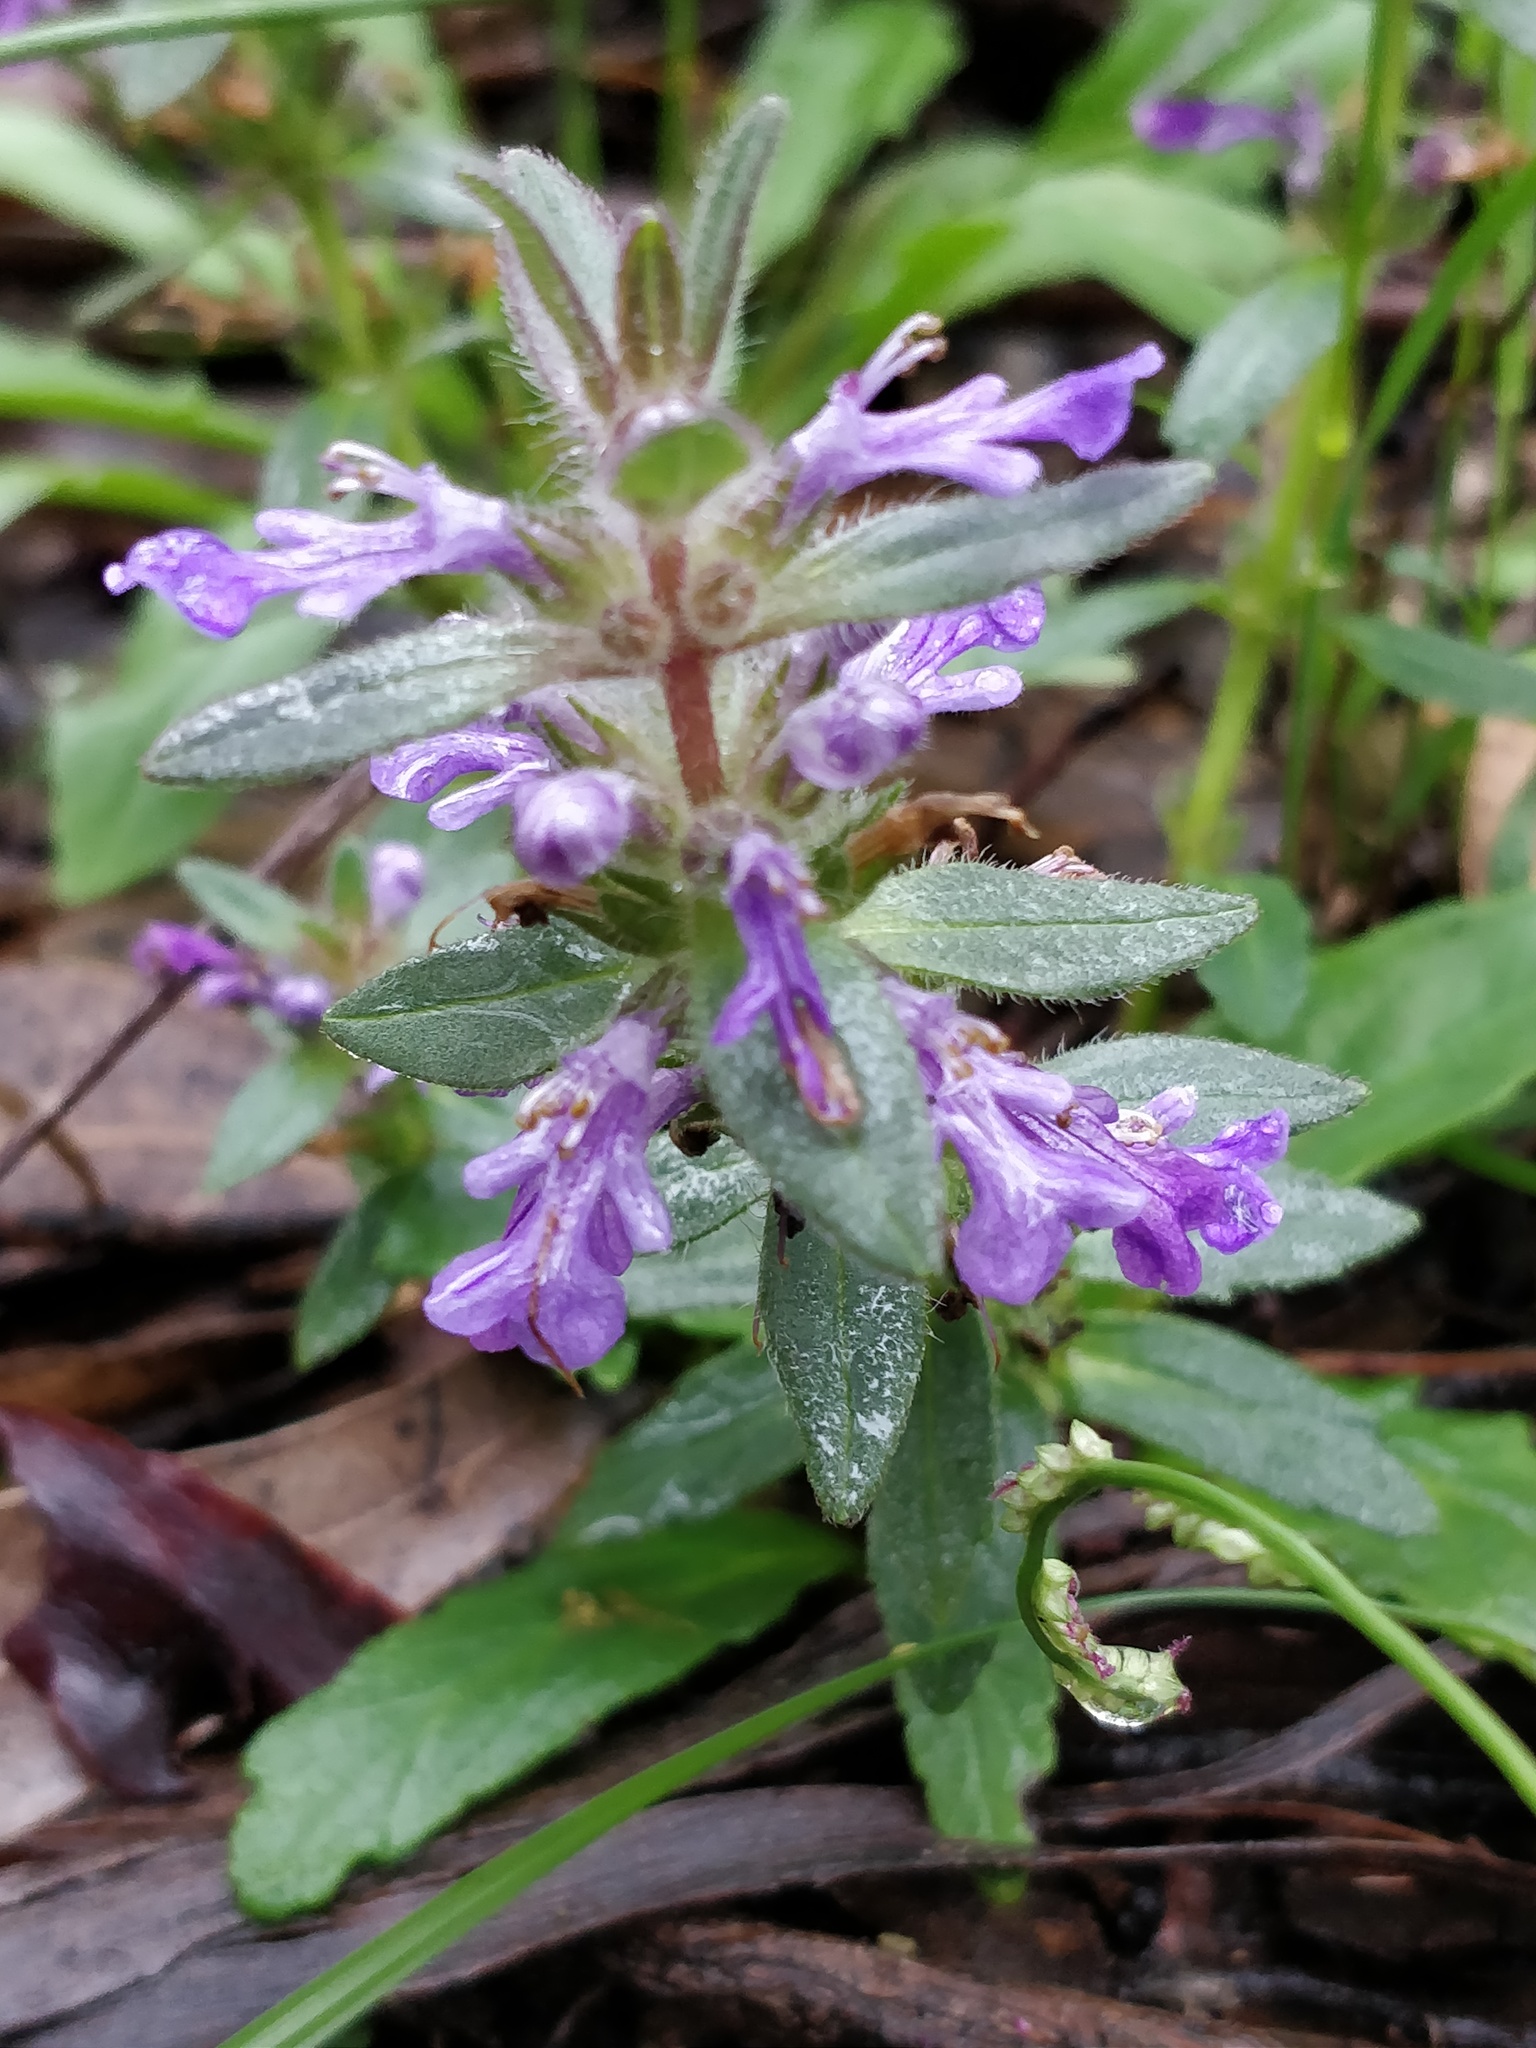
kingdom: Plantae
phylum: Tracheophyta
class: Magnoliopsida
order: Lamiales
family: Lamiaceae
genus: Ajuga
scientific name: Ajuga australis
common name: Australian bugle
